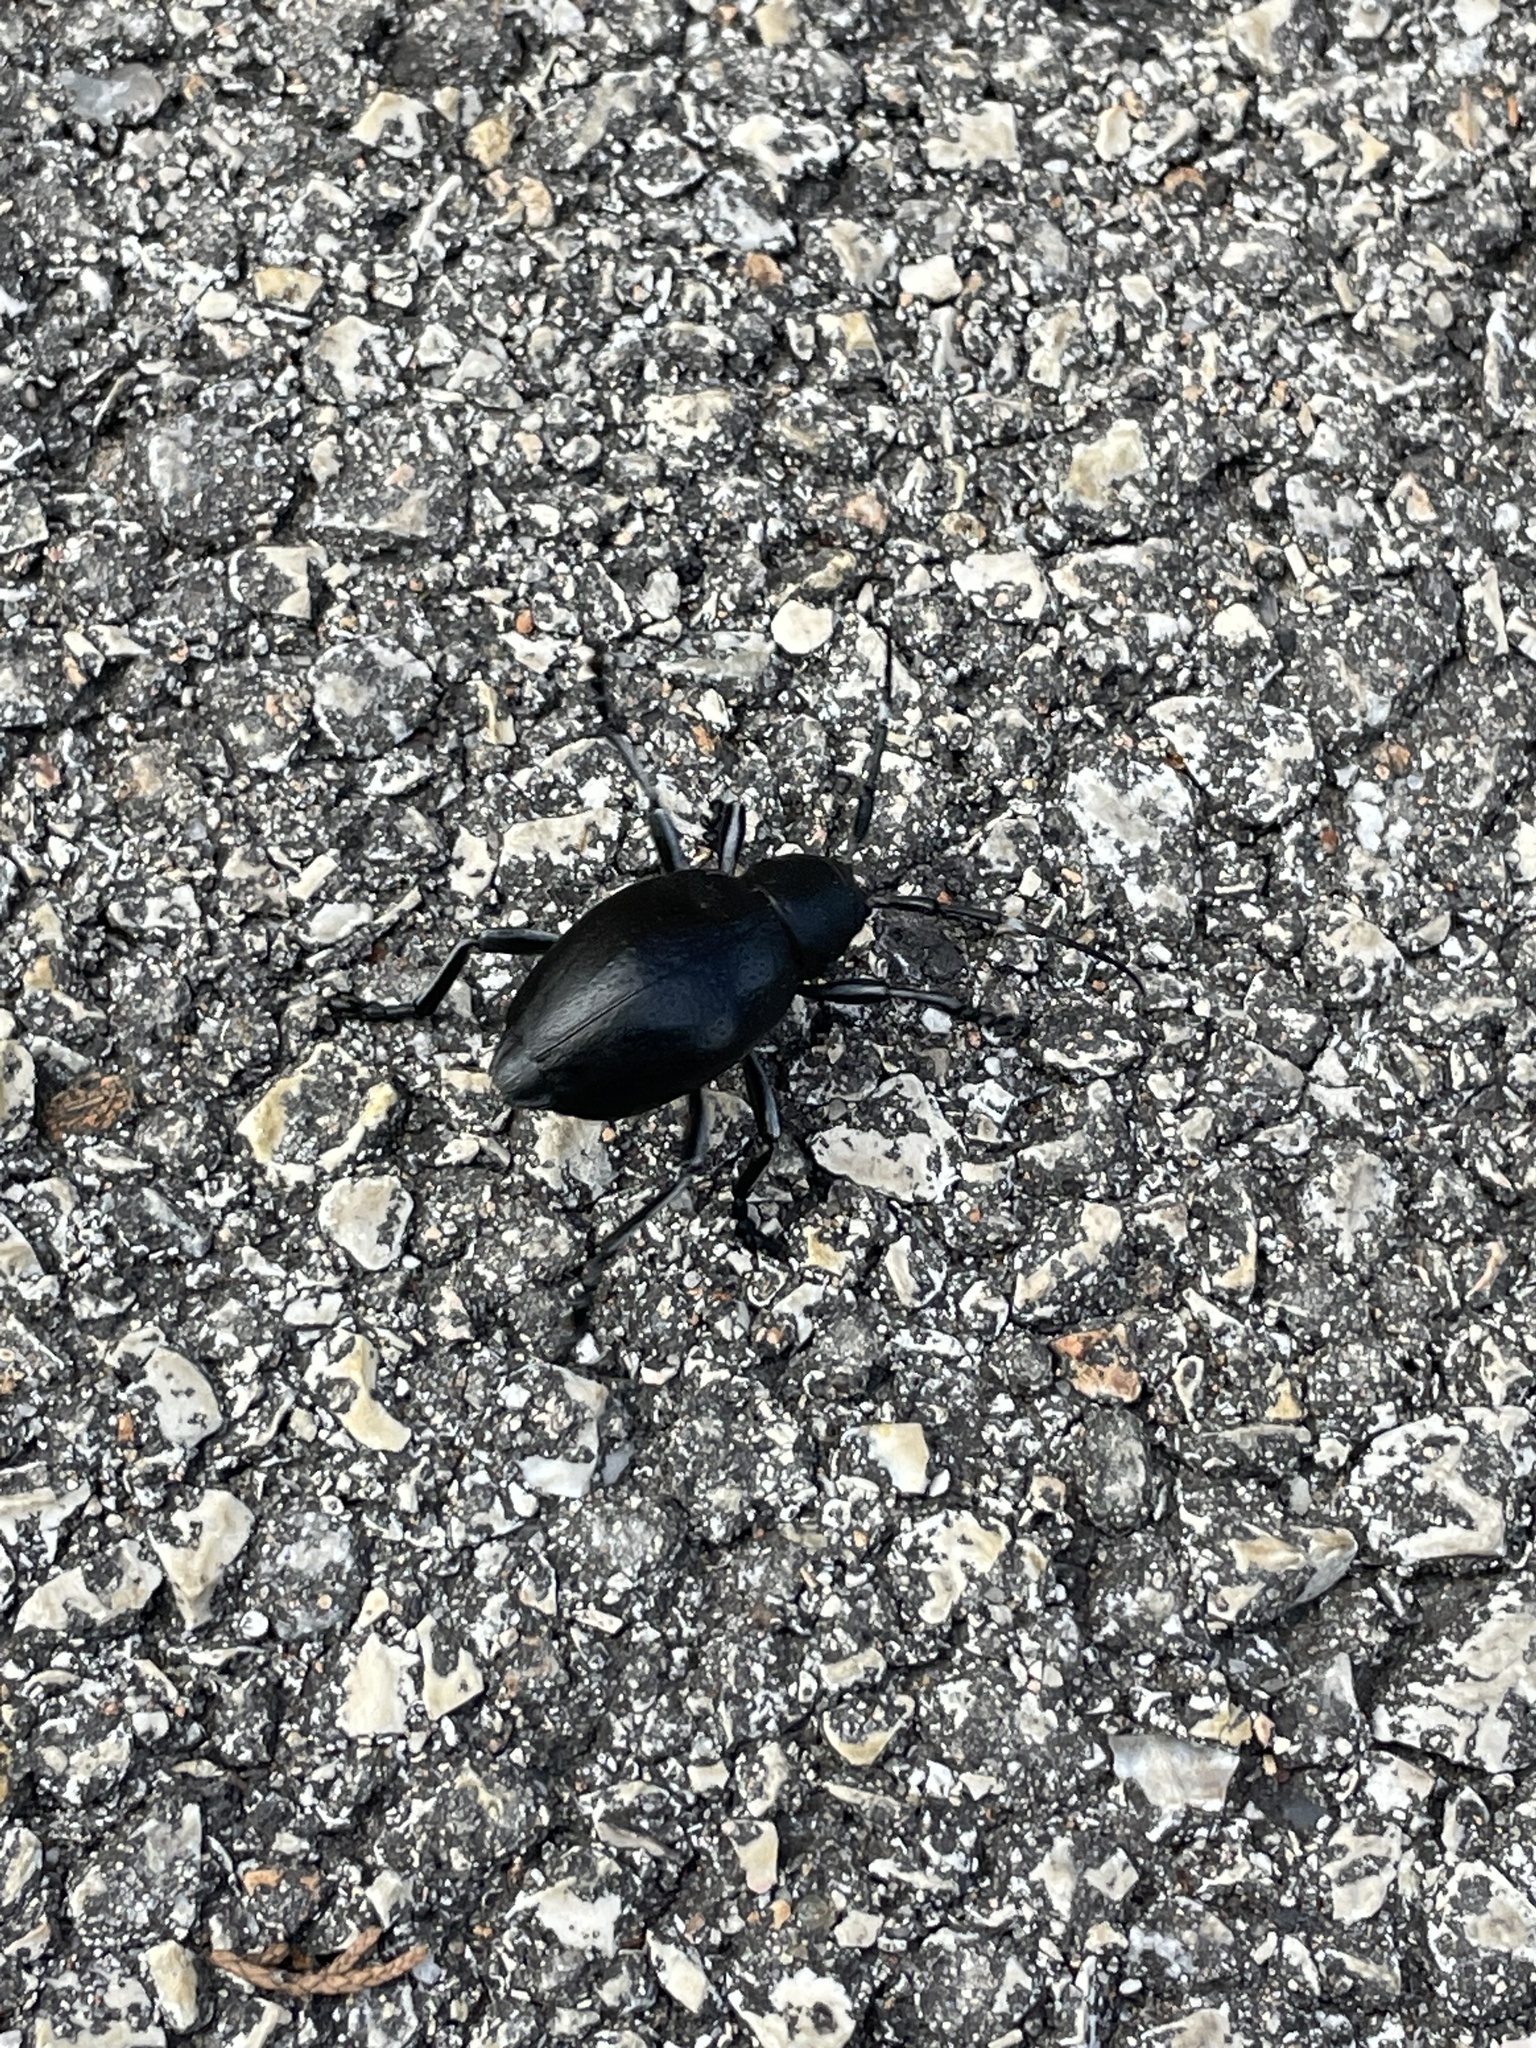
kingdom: Animalia
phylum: Arthropoda
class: Insecta
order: Coleoptera
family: Cerambycidae
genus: Moneilema
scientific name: Moneilema armatum
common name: Long-horned beetle
